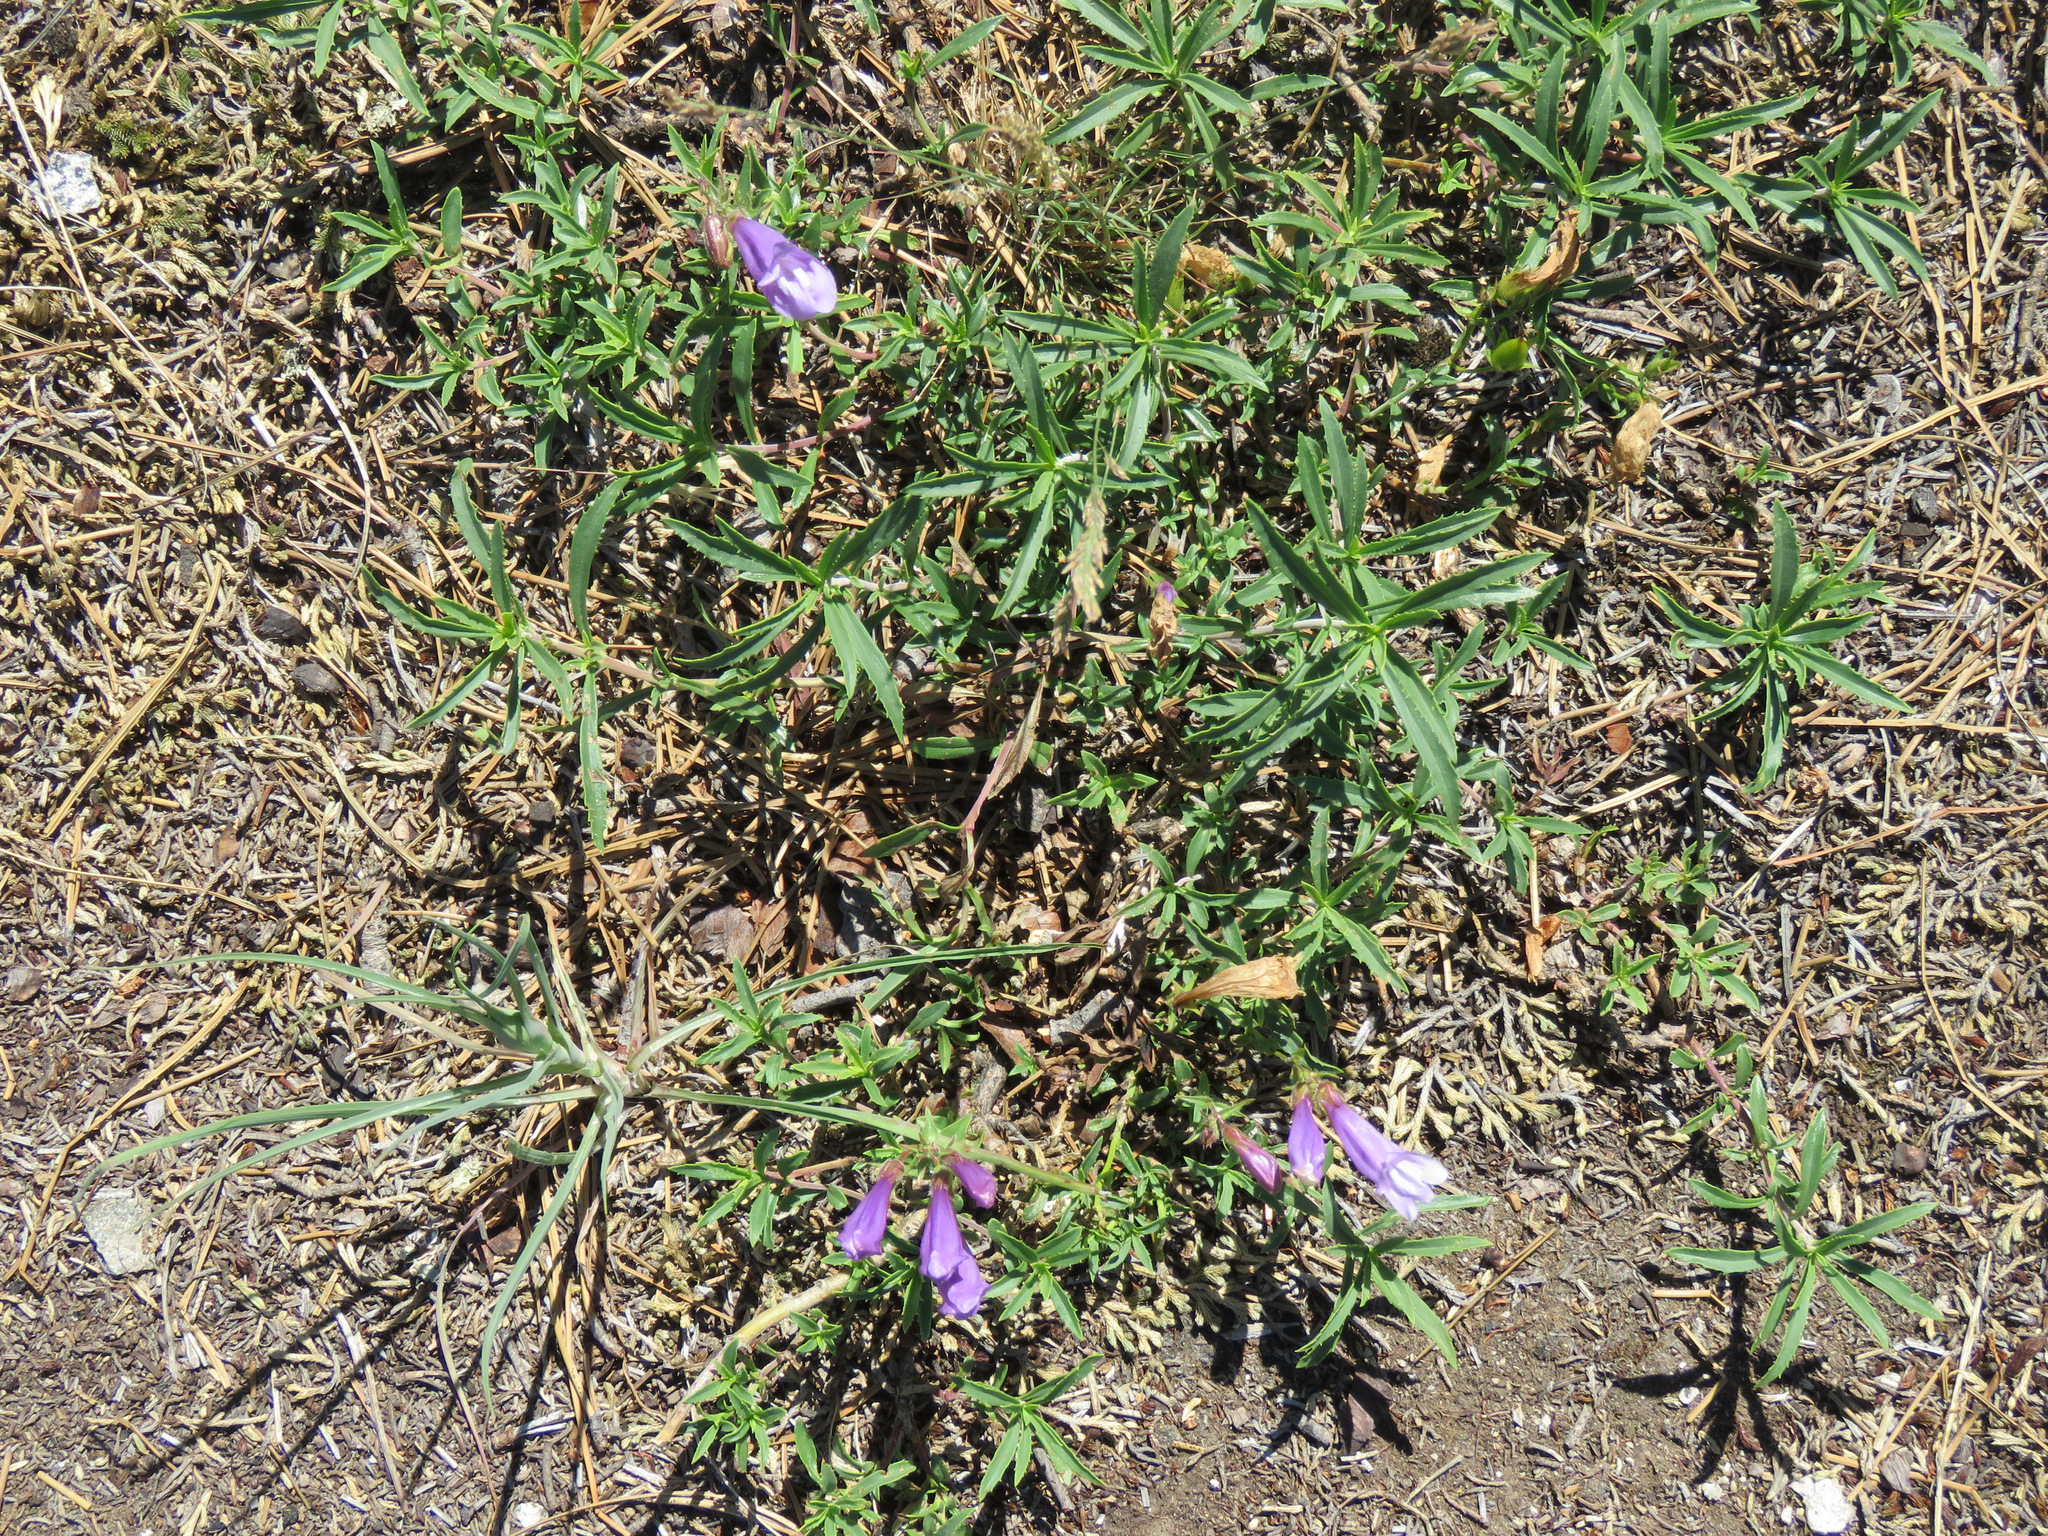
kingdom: Plantae
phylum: Tracheophyta
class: Magnoliopsida
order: Lamiales
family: Plantaginaceae
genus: Penstemon
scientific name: Penstemon fruticosus
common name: Bush penstemon
